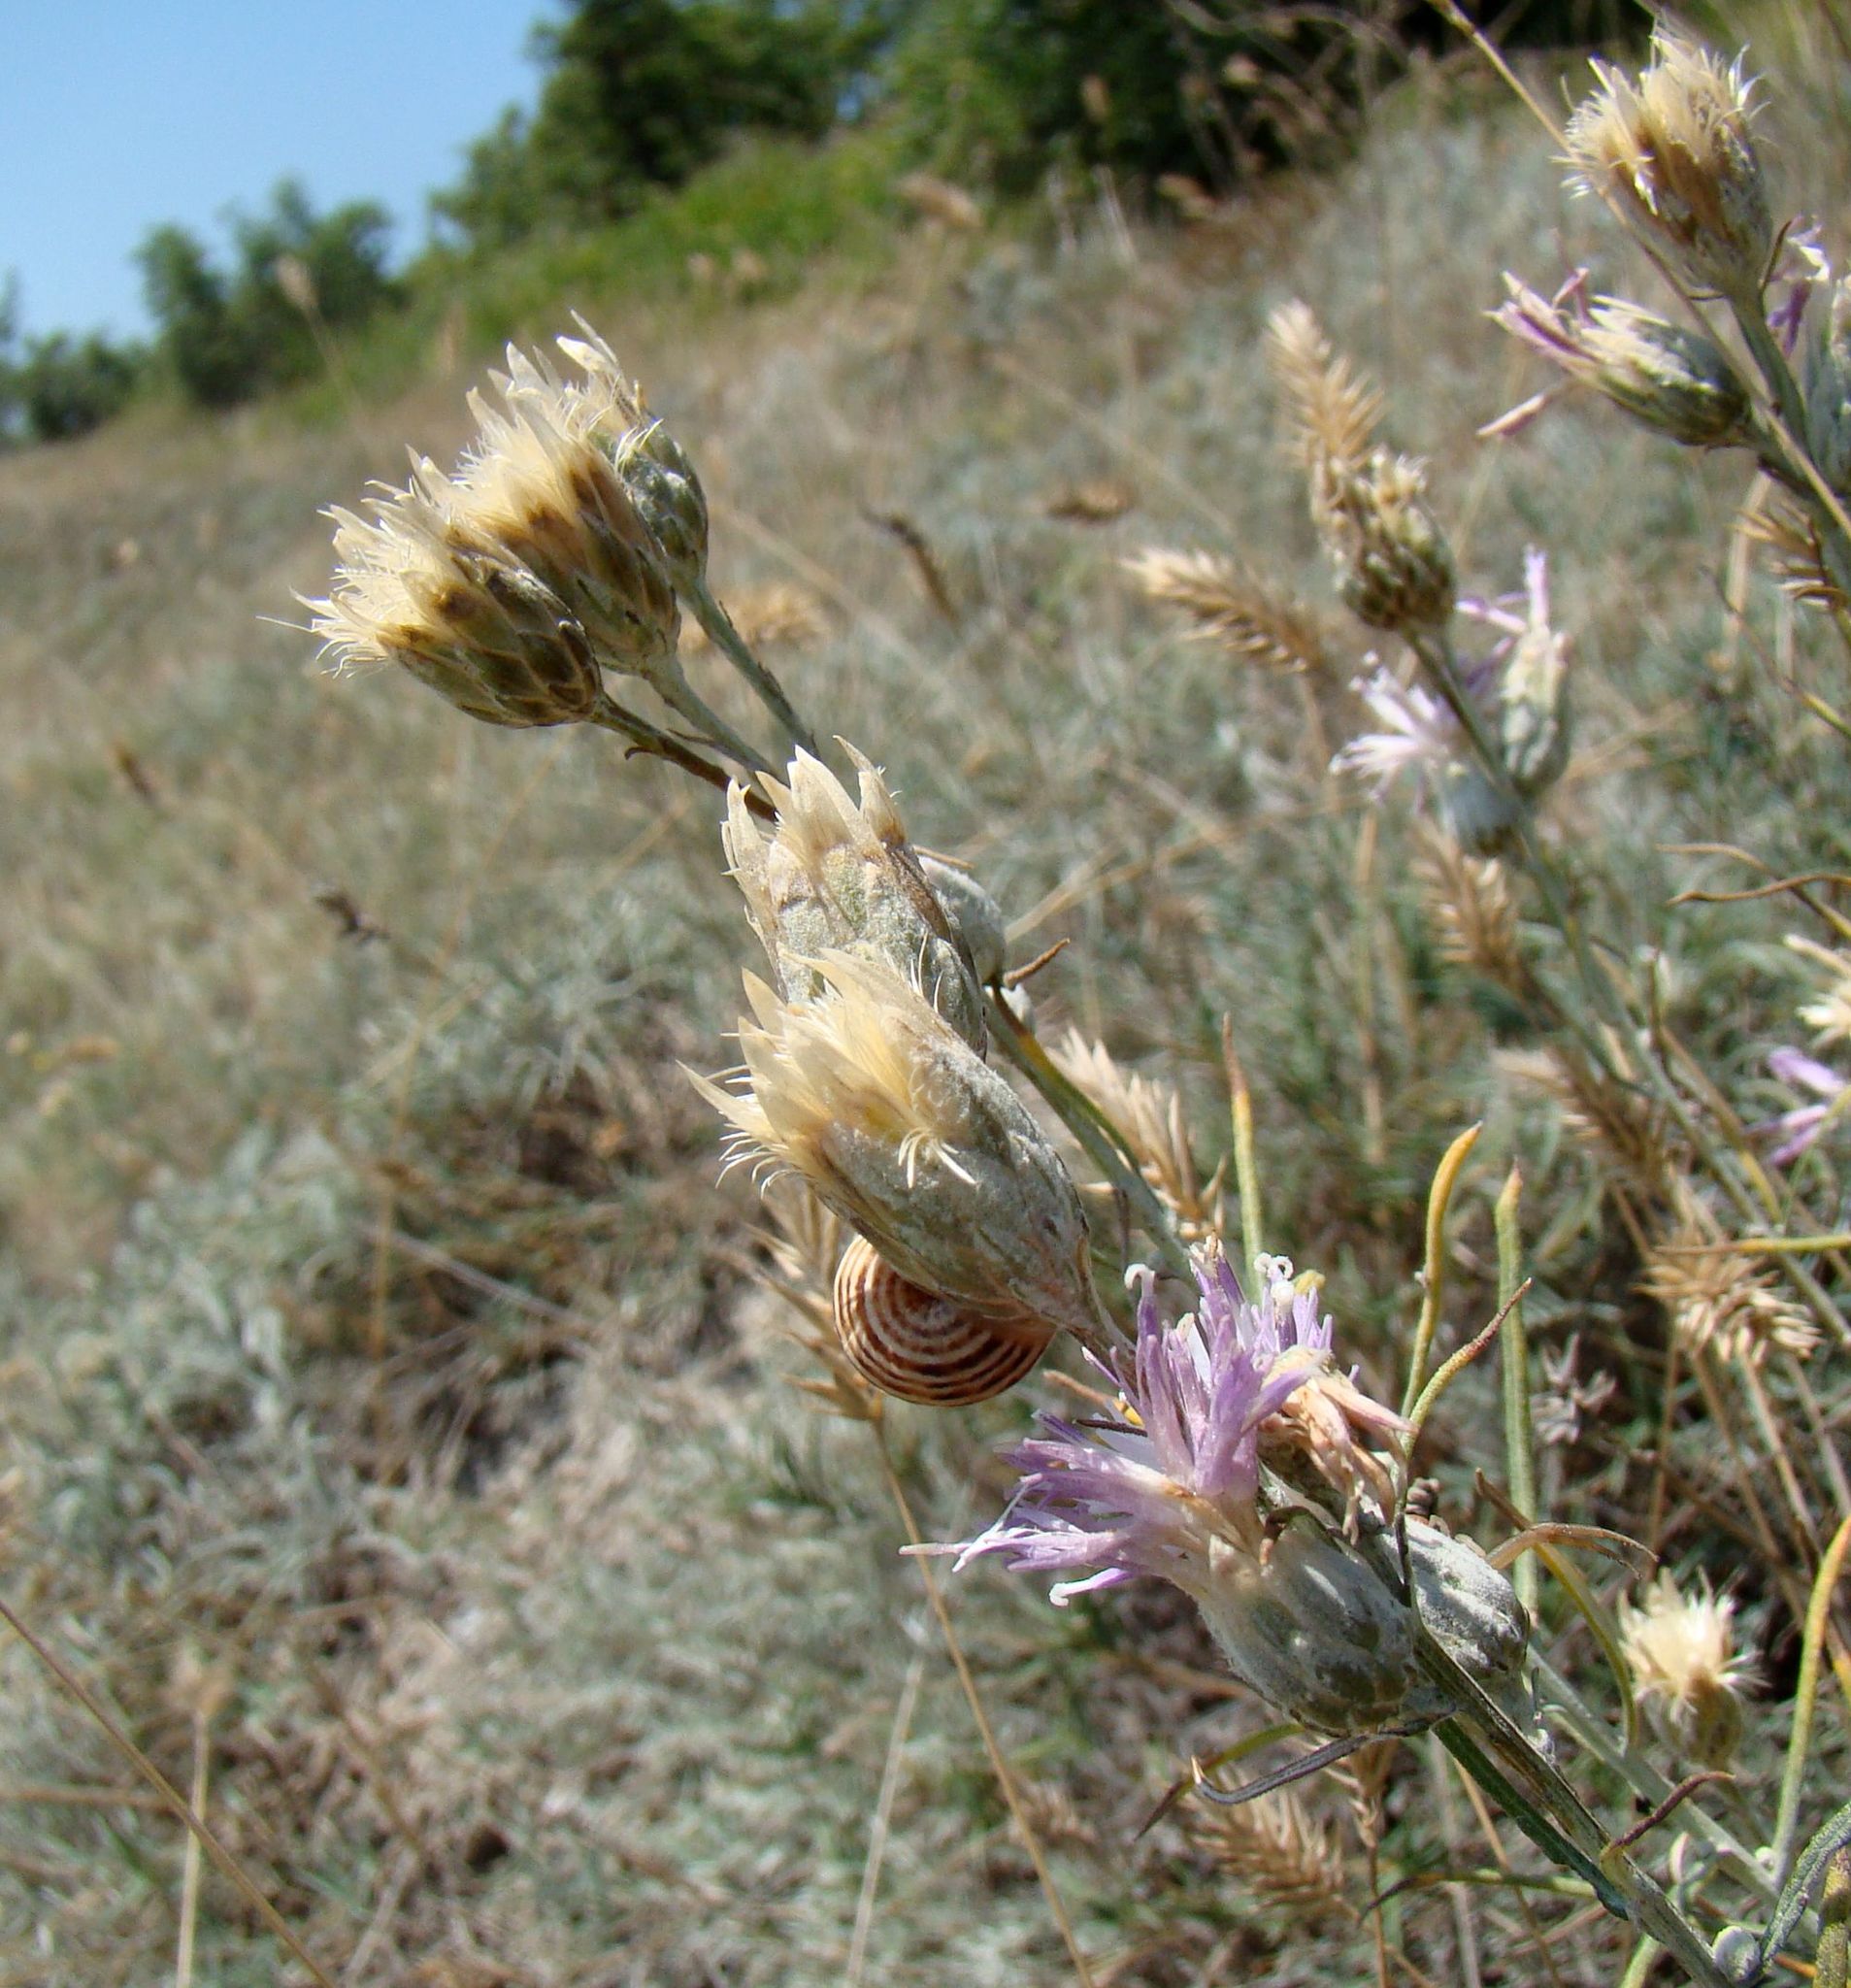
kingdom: Plantae
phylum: Tracheophyta
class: Magnoliopsida
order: Asterales
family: Asteraceae
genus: Jurinea
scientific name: Jurinea stoechadifolia
